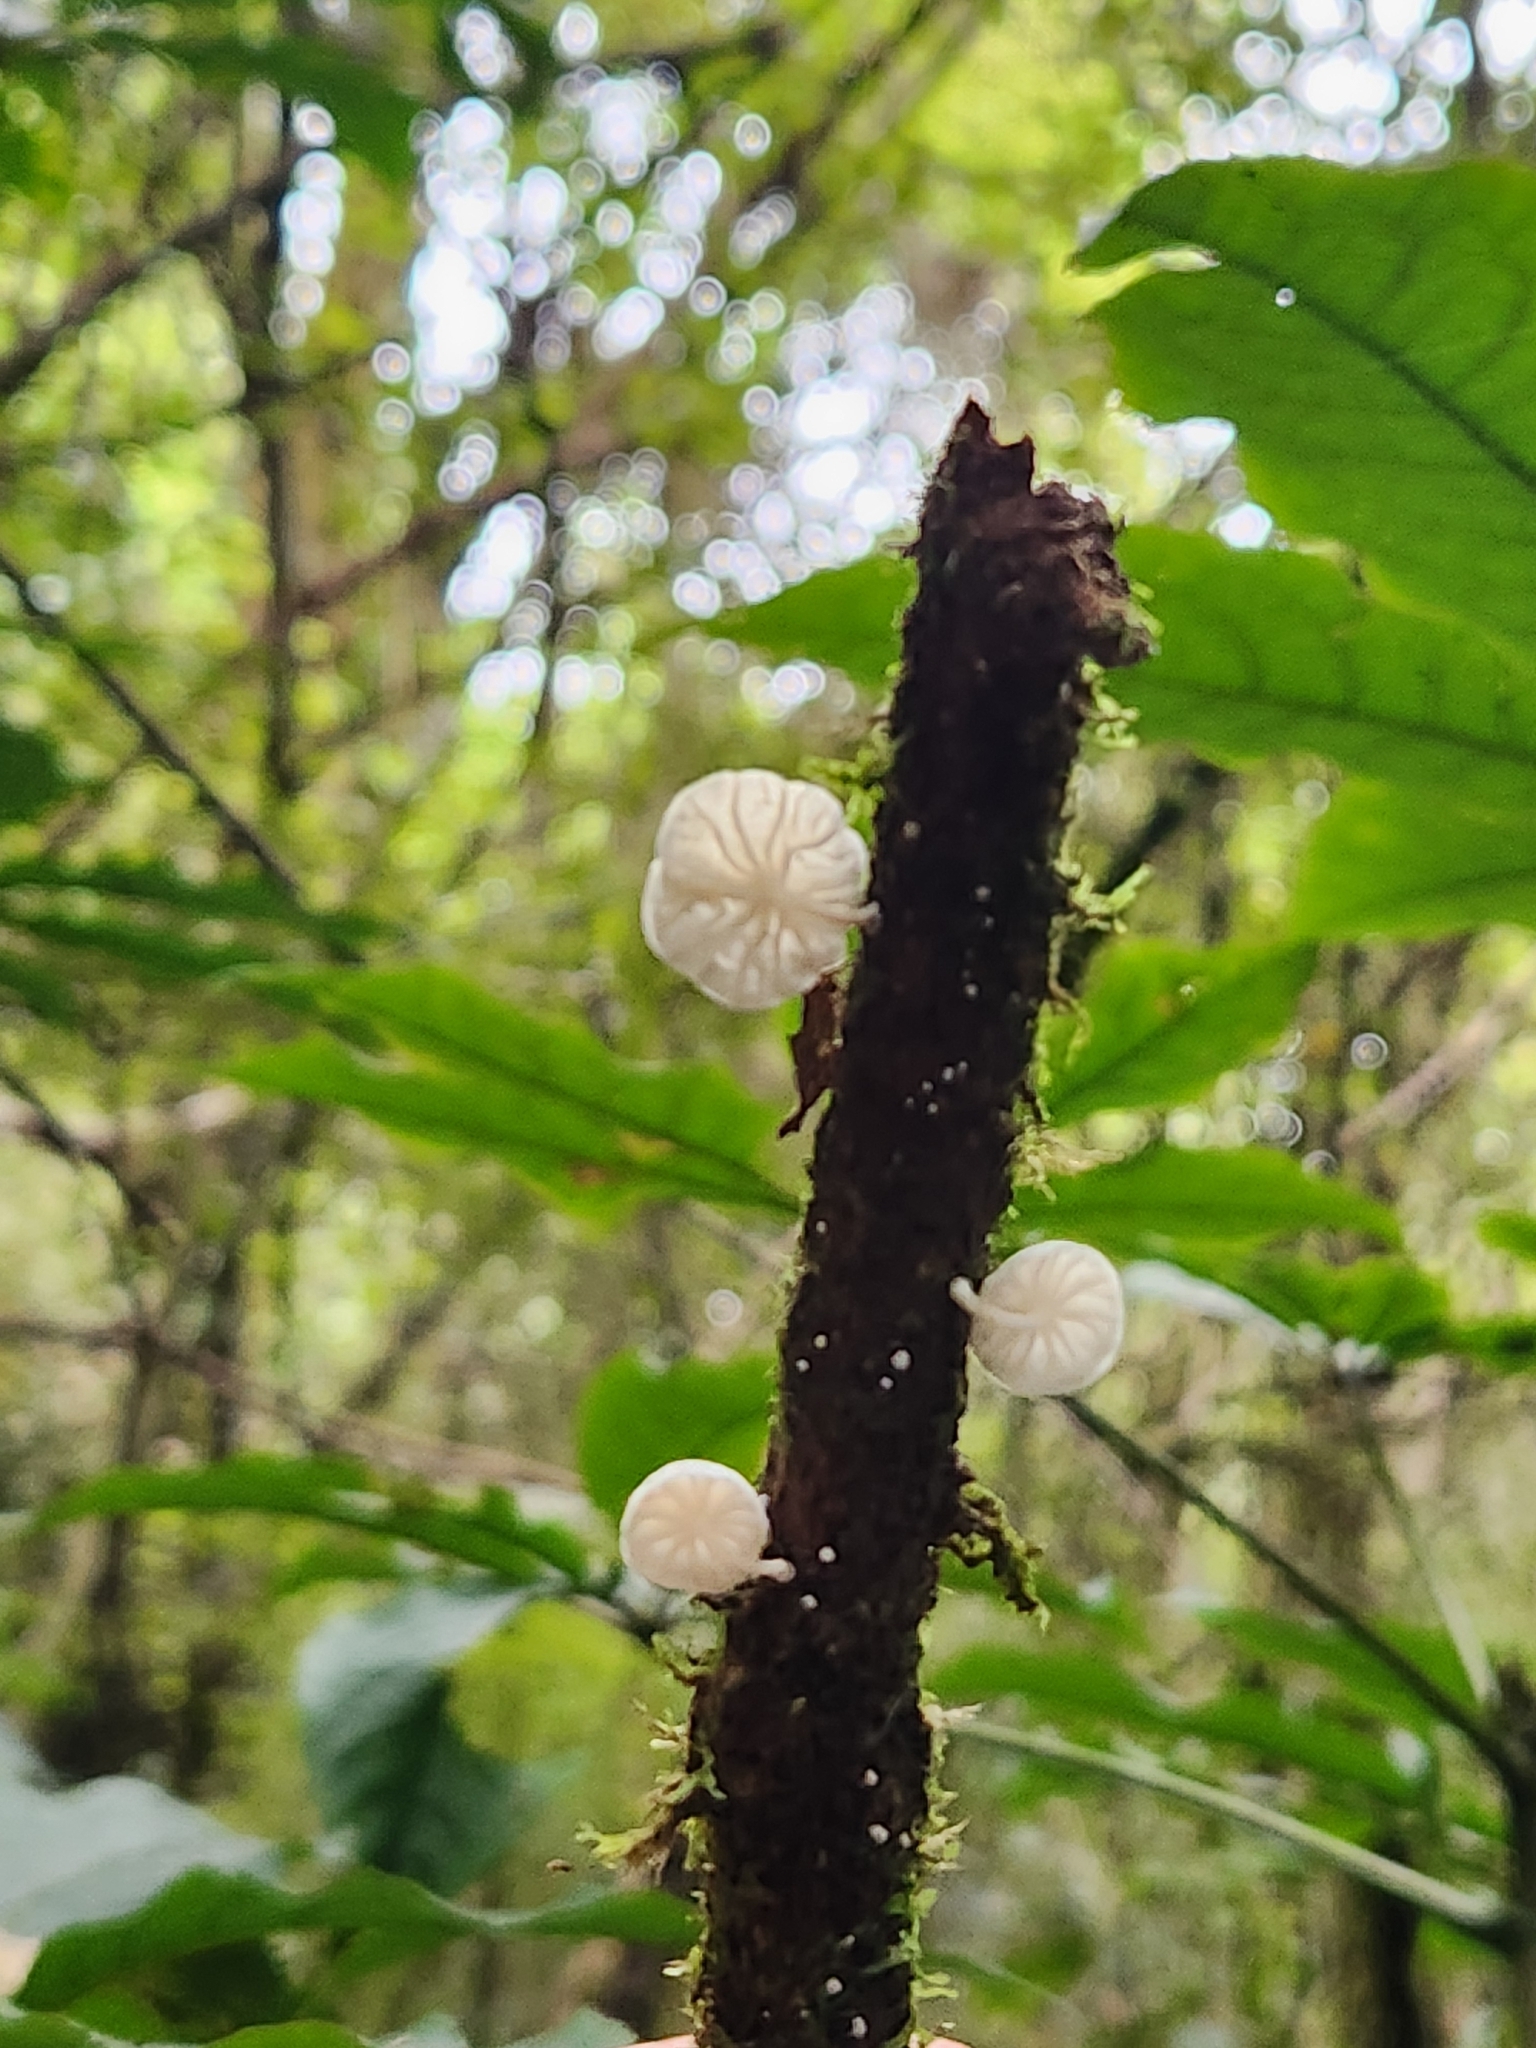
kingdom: Fungi
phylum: Basidiomycota
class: Agaricomycetes
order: Agaricales
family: Omphalotaceae
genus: Marasmiellus
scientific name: Marasmiellus candidus
